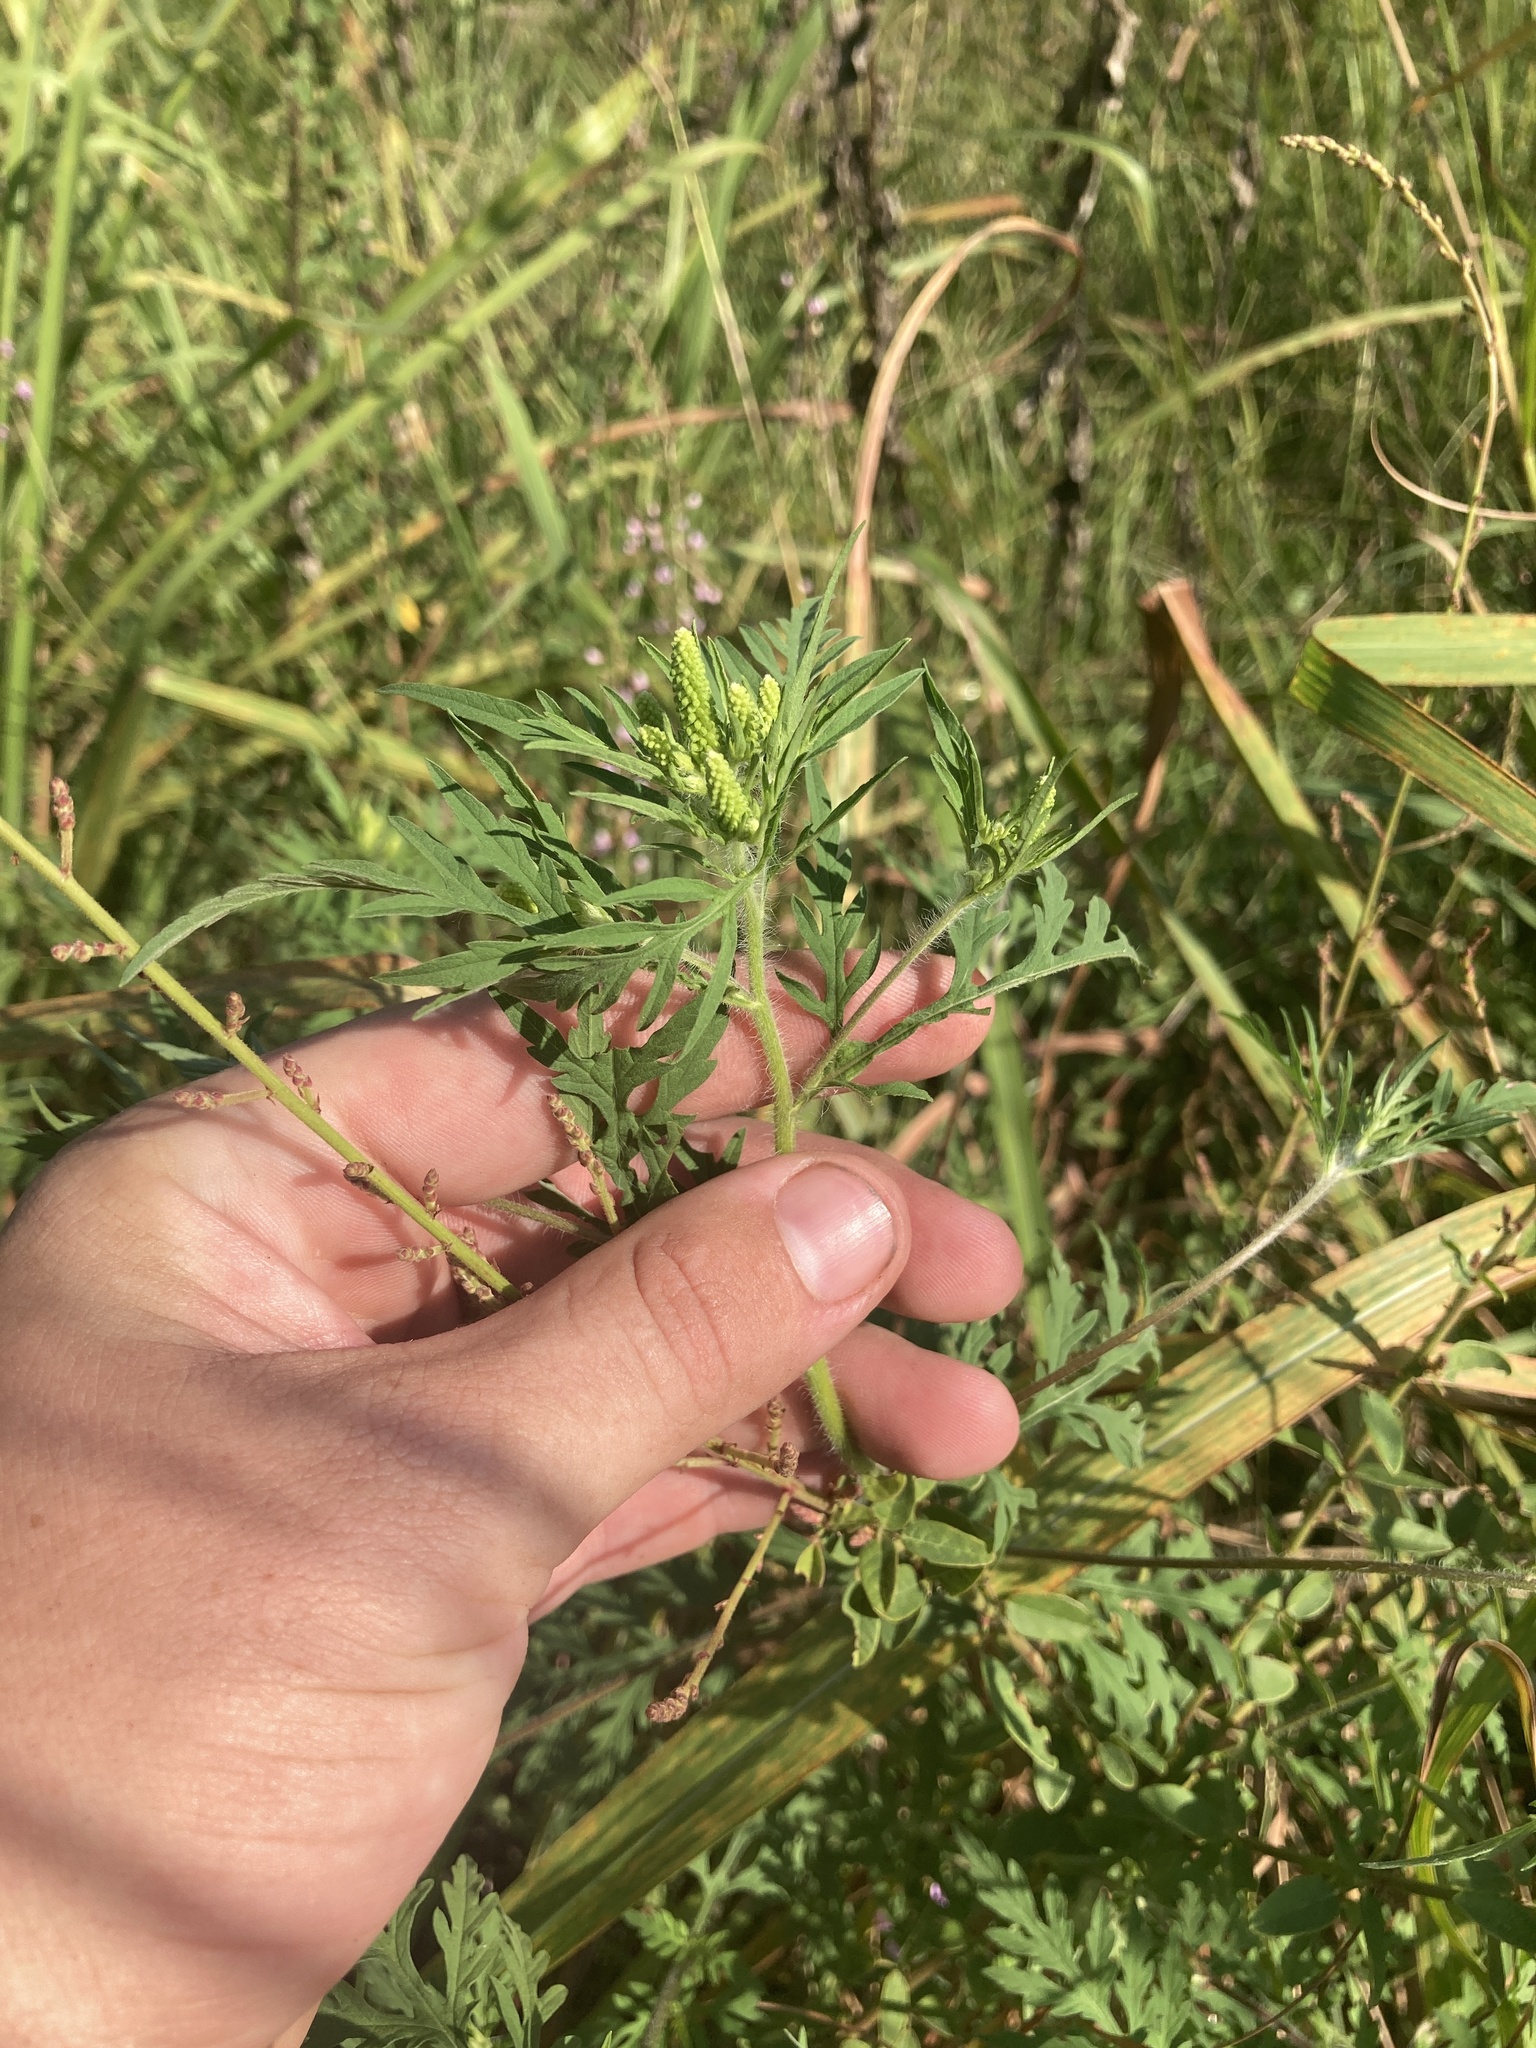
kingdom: Plantae
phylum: Tracheophyta
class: Magnoliopsida
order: Asterales
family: Asteraceae
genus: Ambrosia
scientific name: Ambrosia artemisiifolia
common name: Annual ragweed
